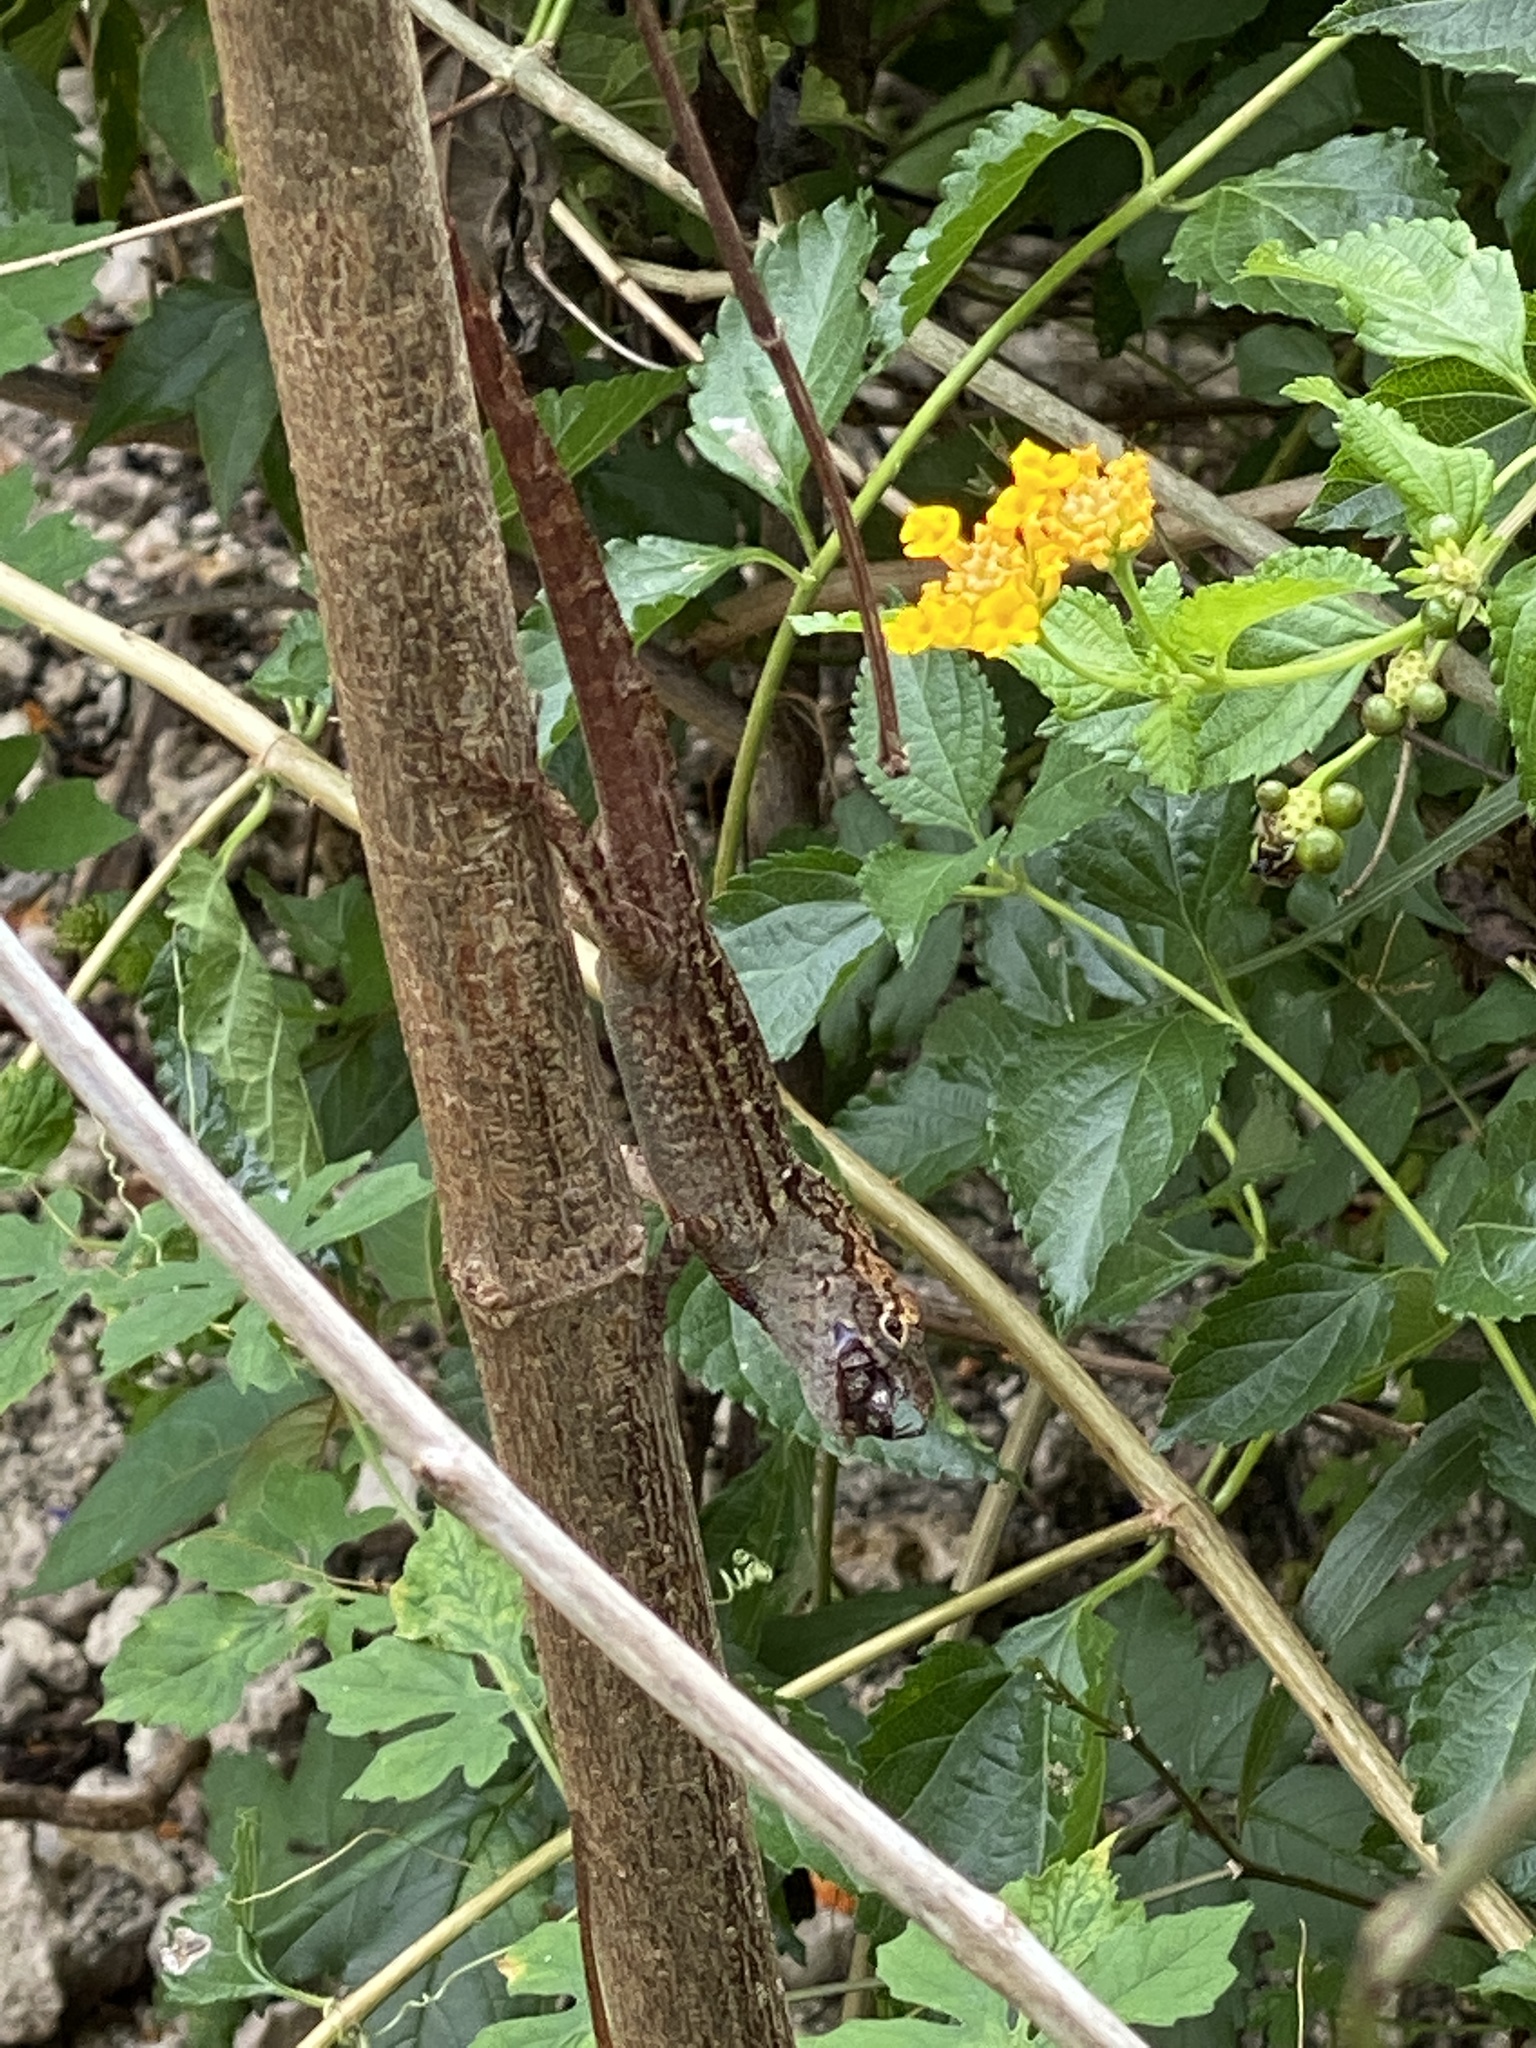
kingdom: Animalia
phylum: Chordata
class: Squamata
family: Dactyloidae
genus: Anolis
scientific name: Anolis sagrei
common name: Brown anole
